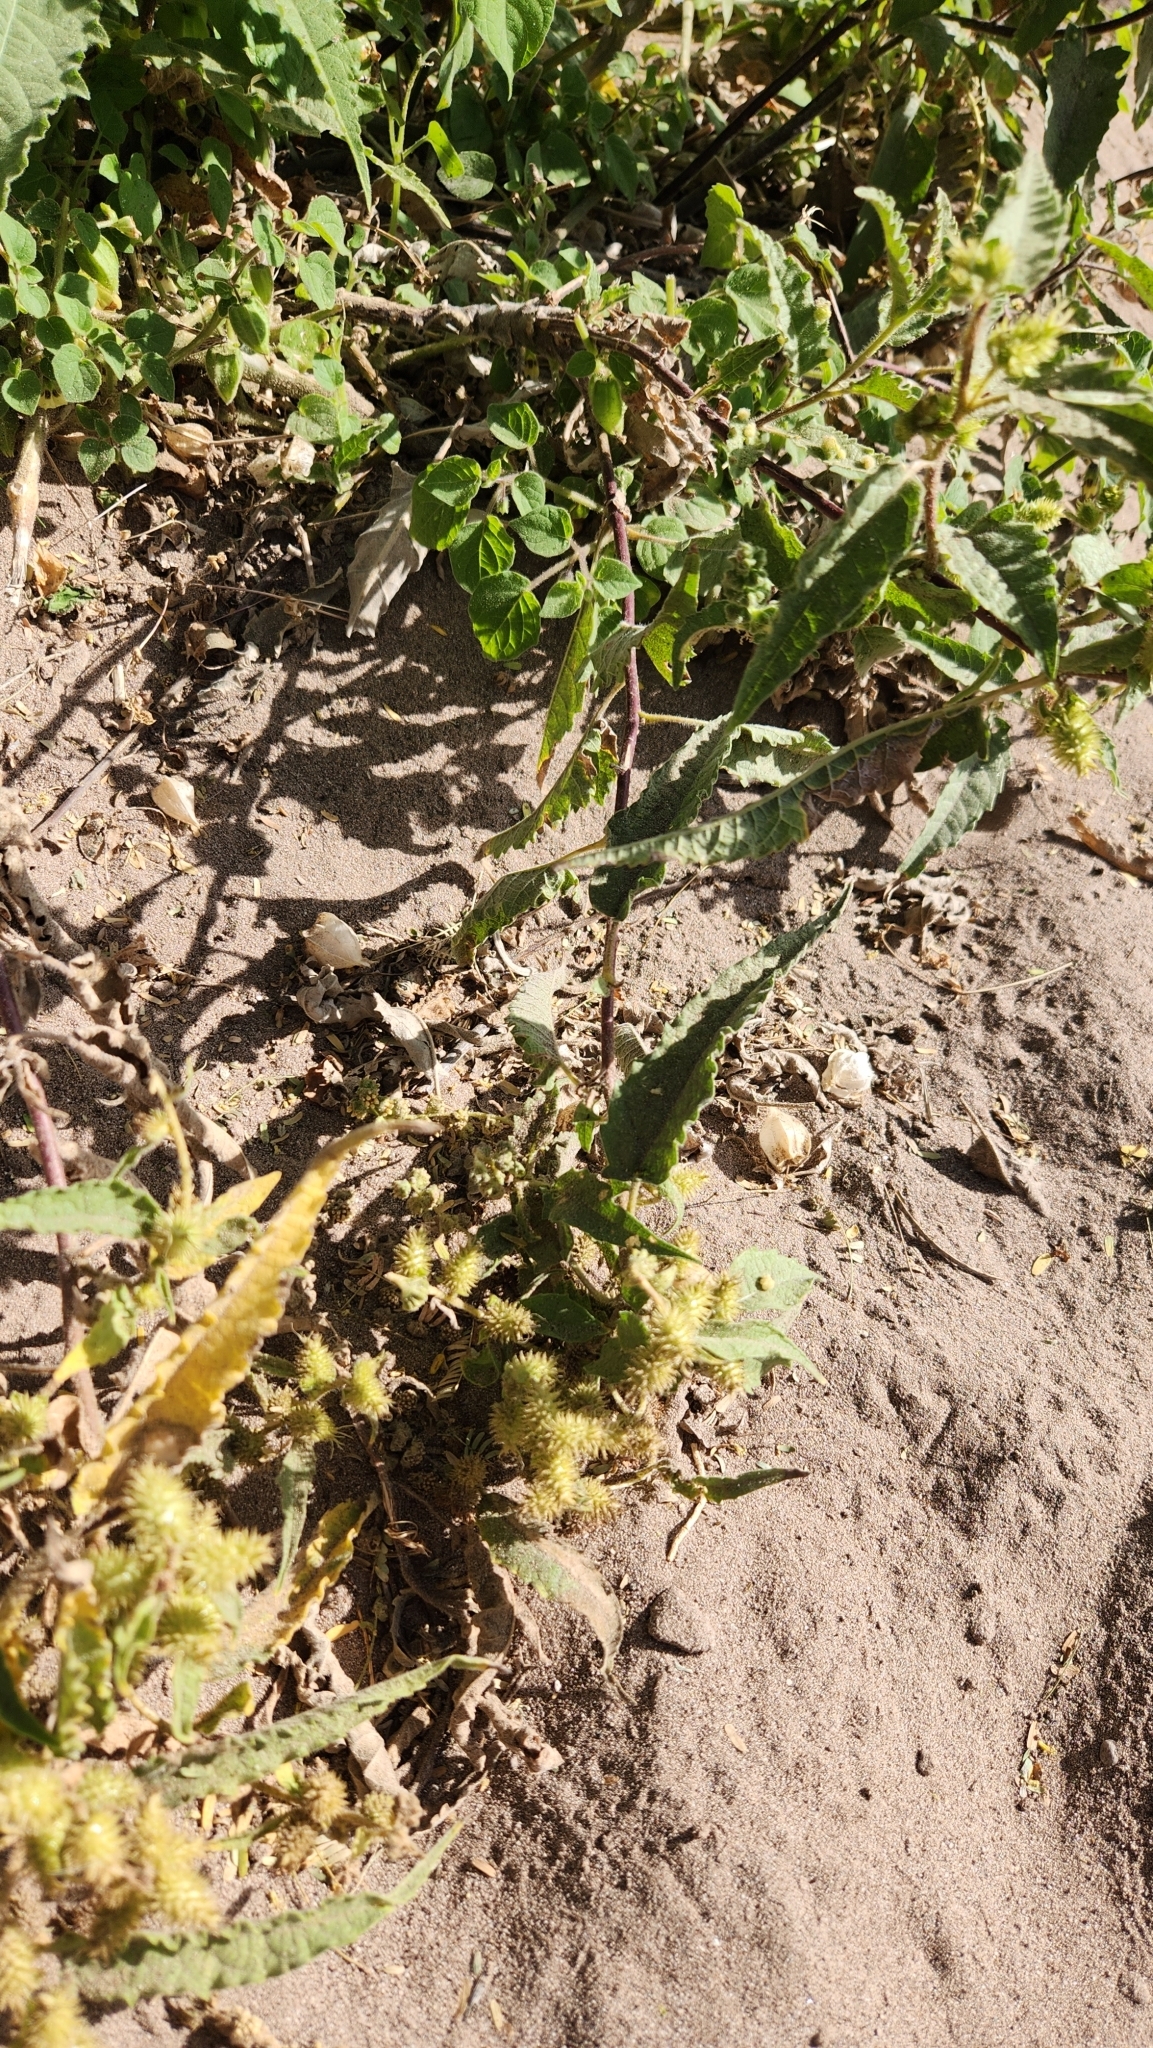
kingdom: Plantae
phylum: Tracheophyta
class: Magnoliopsida
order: Asterales
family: Asteraceae
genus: Ambrosia
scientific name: Ambrosia ambrosioides
